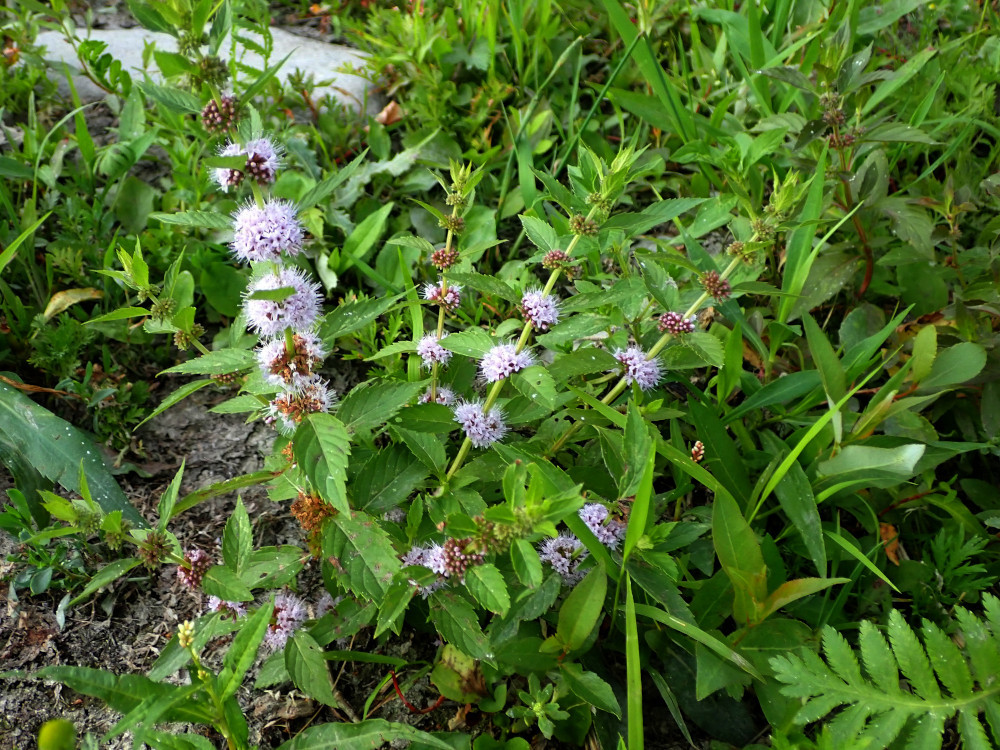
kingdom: Plantae
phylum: Tracheophyta
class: Magnoliopsida
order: Lamiales
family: Lamiaceae
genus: Mentha
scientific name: Mentha canadensis
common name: American corn mint
